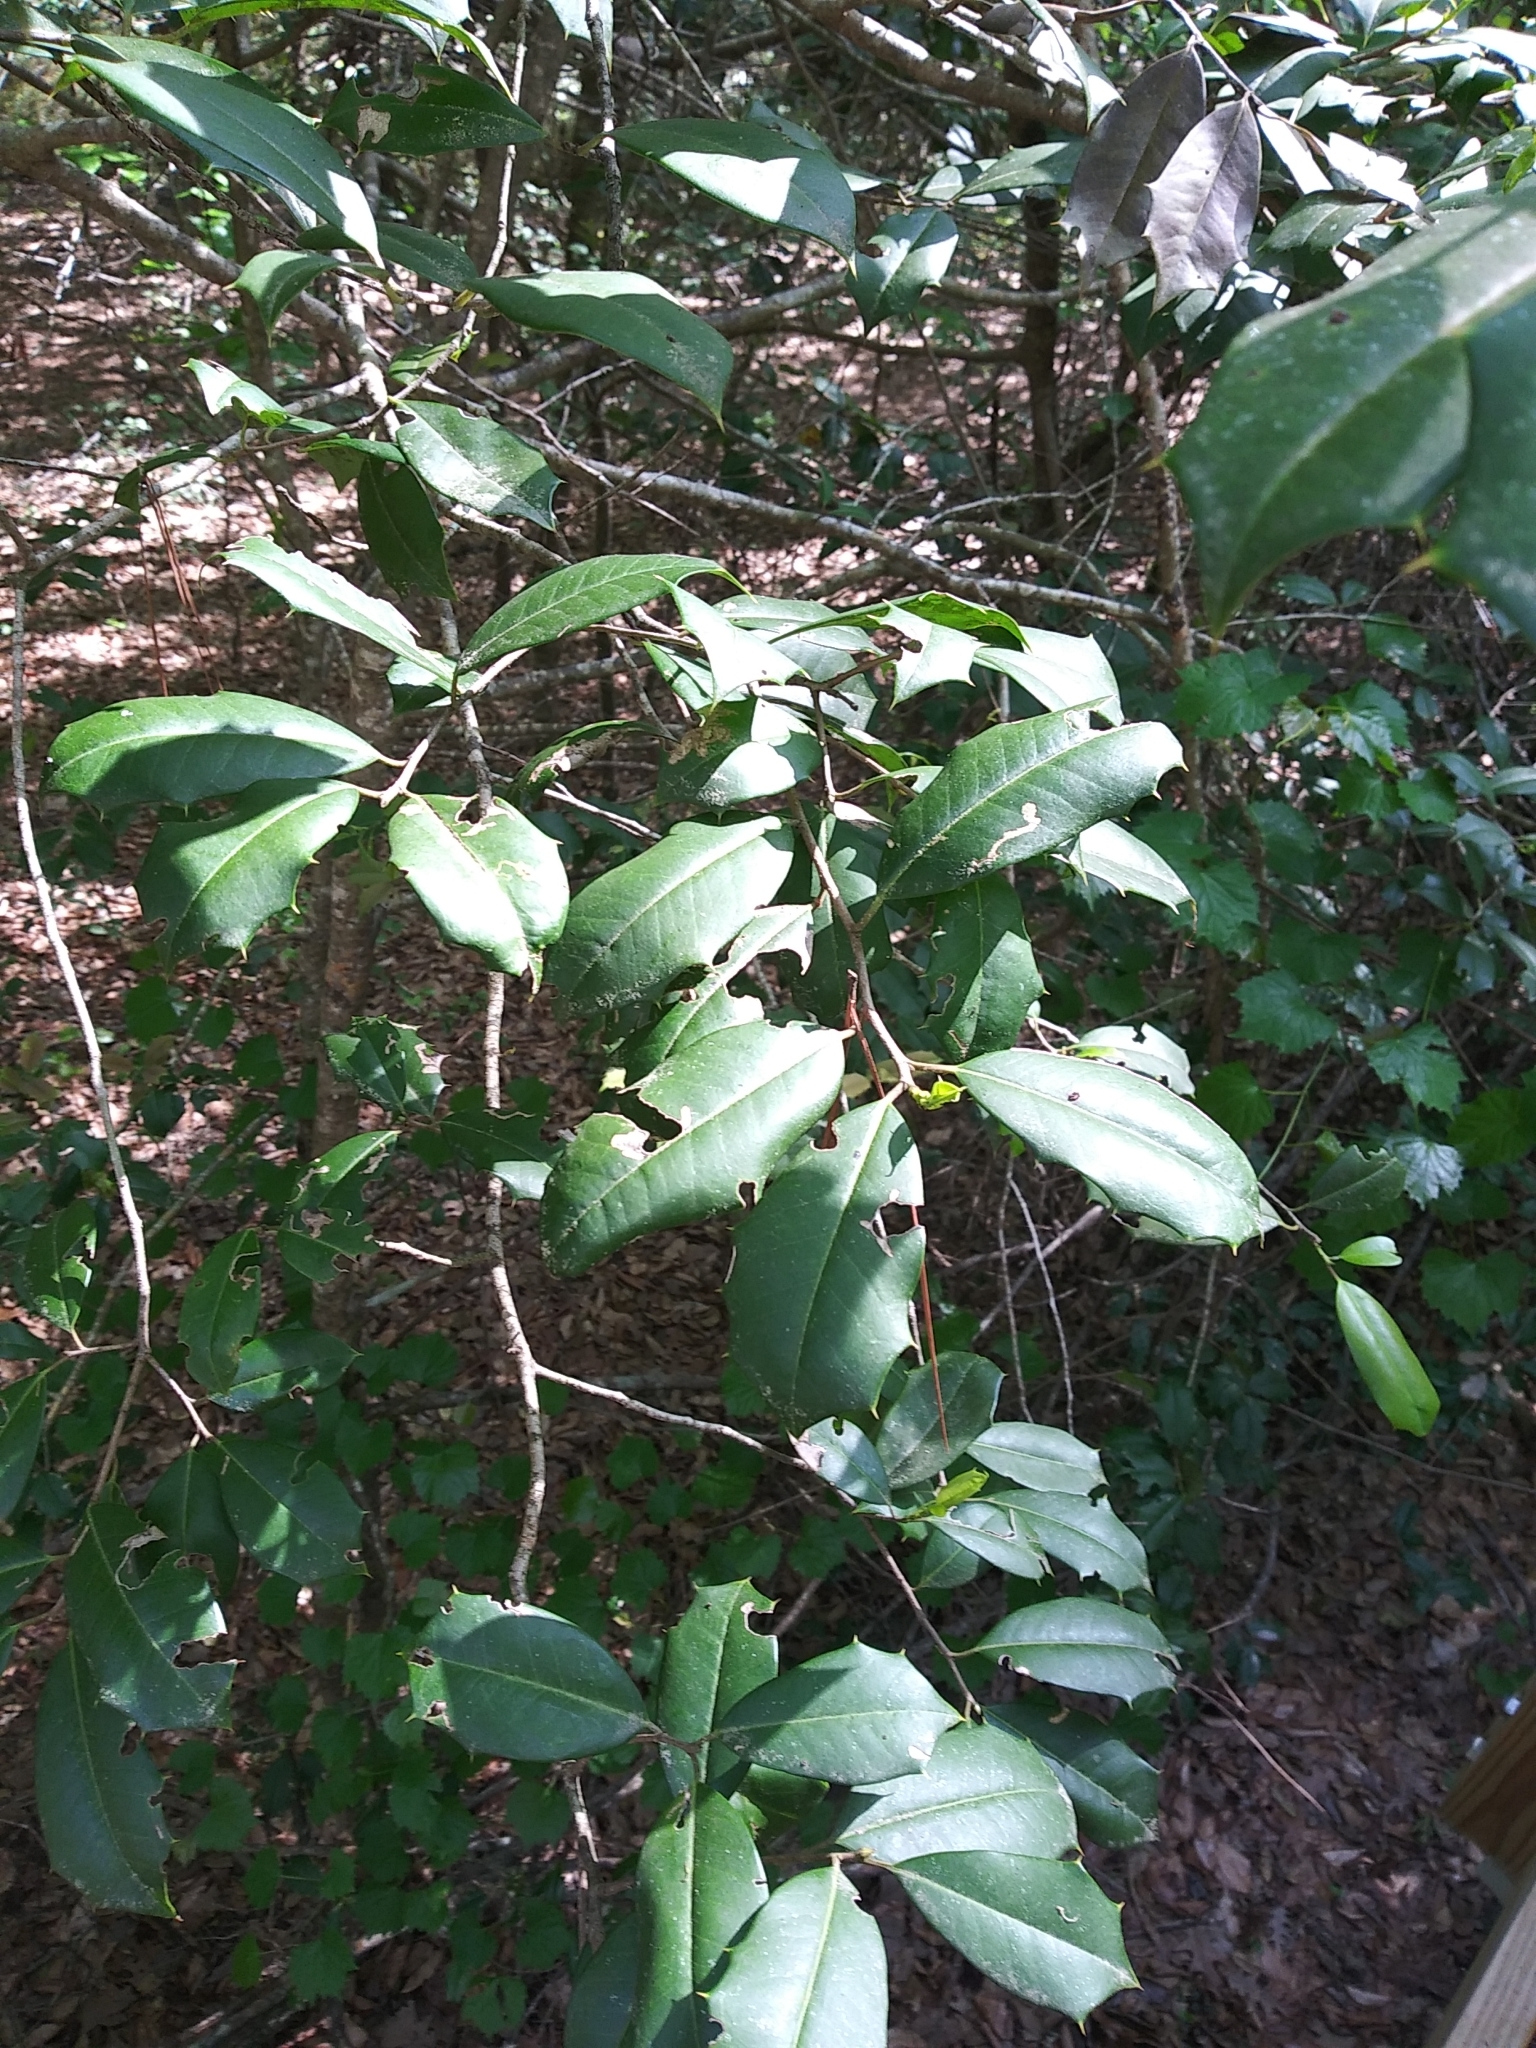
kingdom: Plantae
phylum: Tracheophyta
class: Magnoliopsida
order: Aquifoliales
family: Aquifoliaceae
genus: Ilex
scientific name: Ilex opaca
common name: American holly
